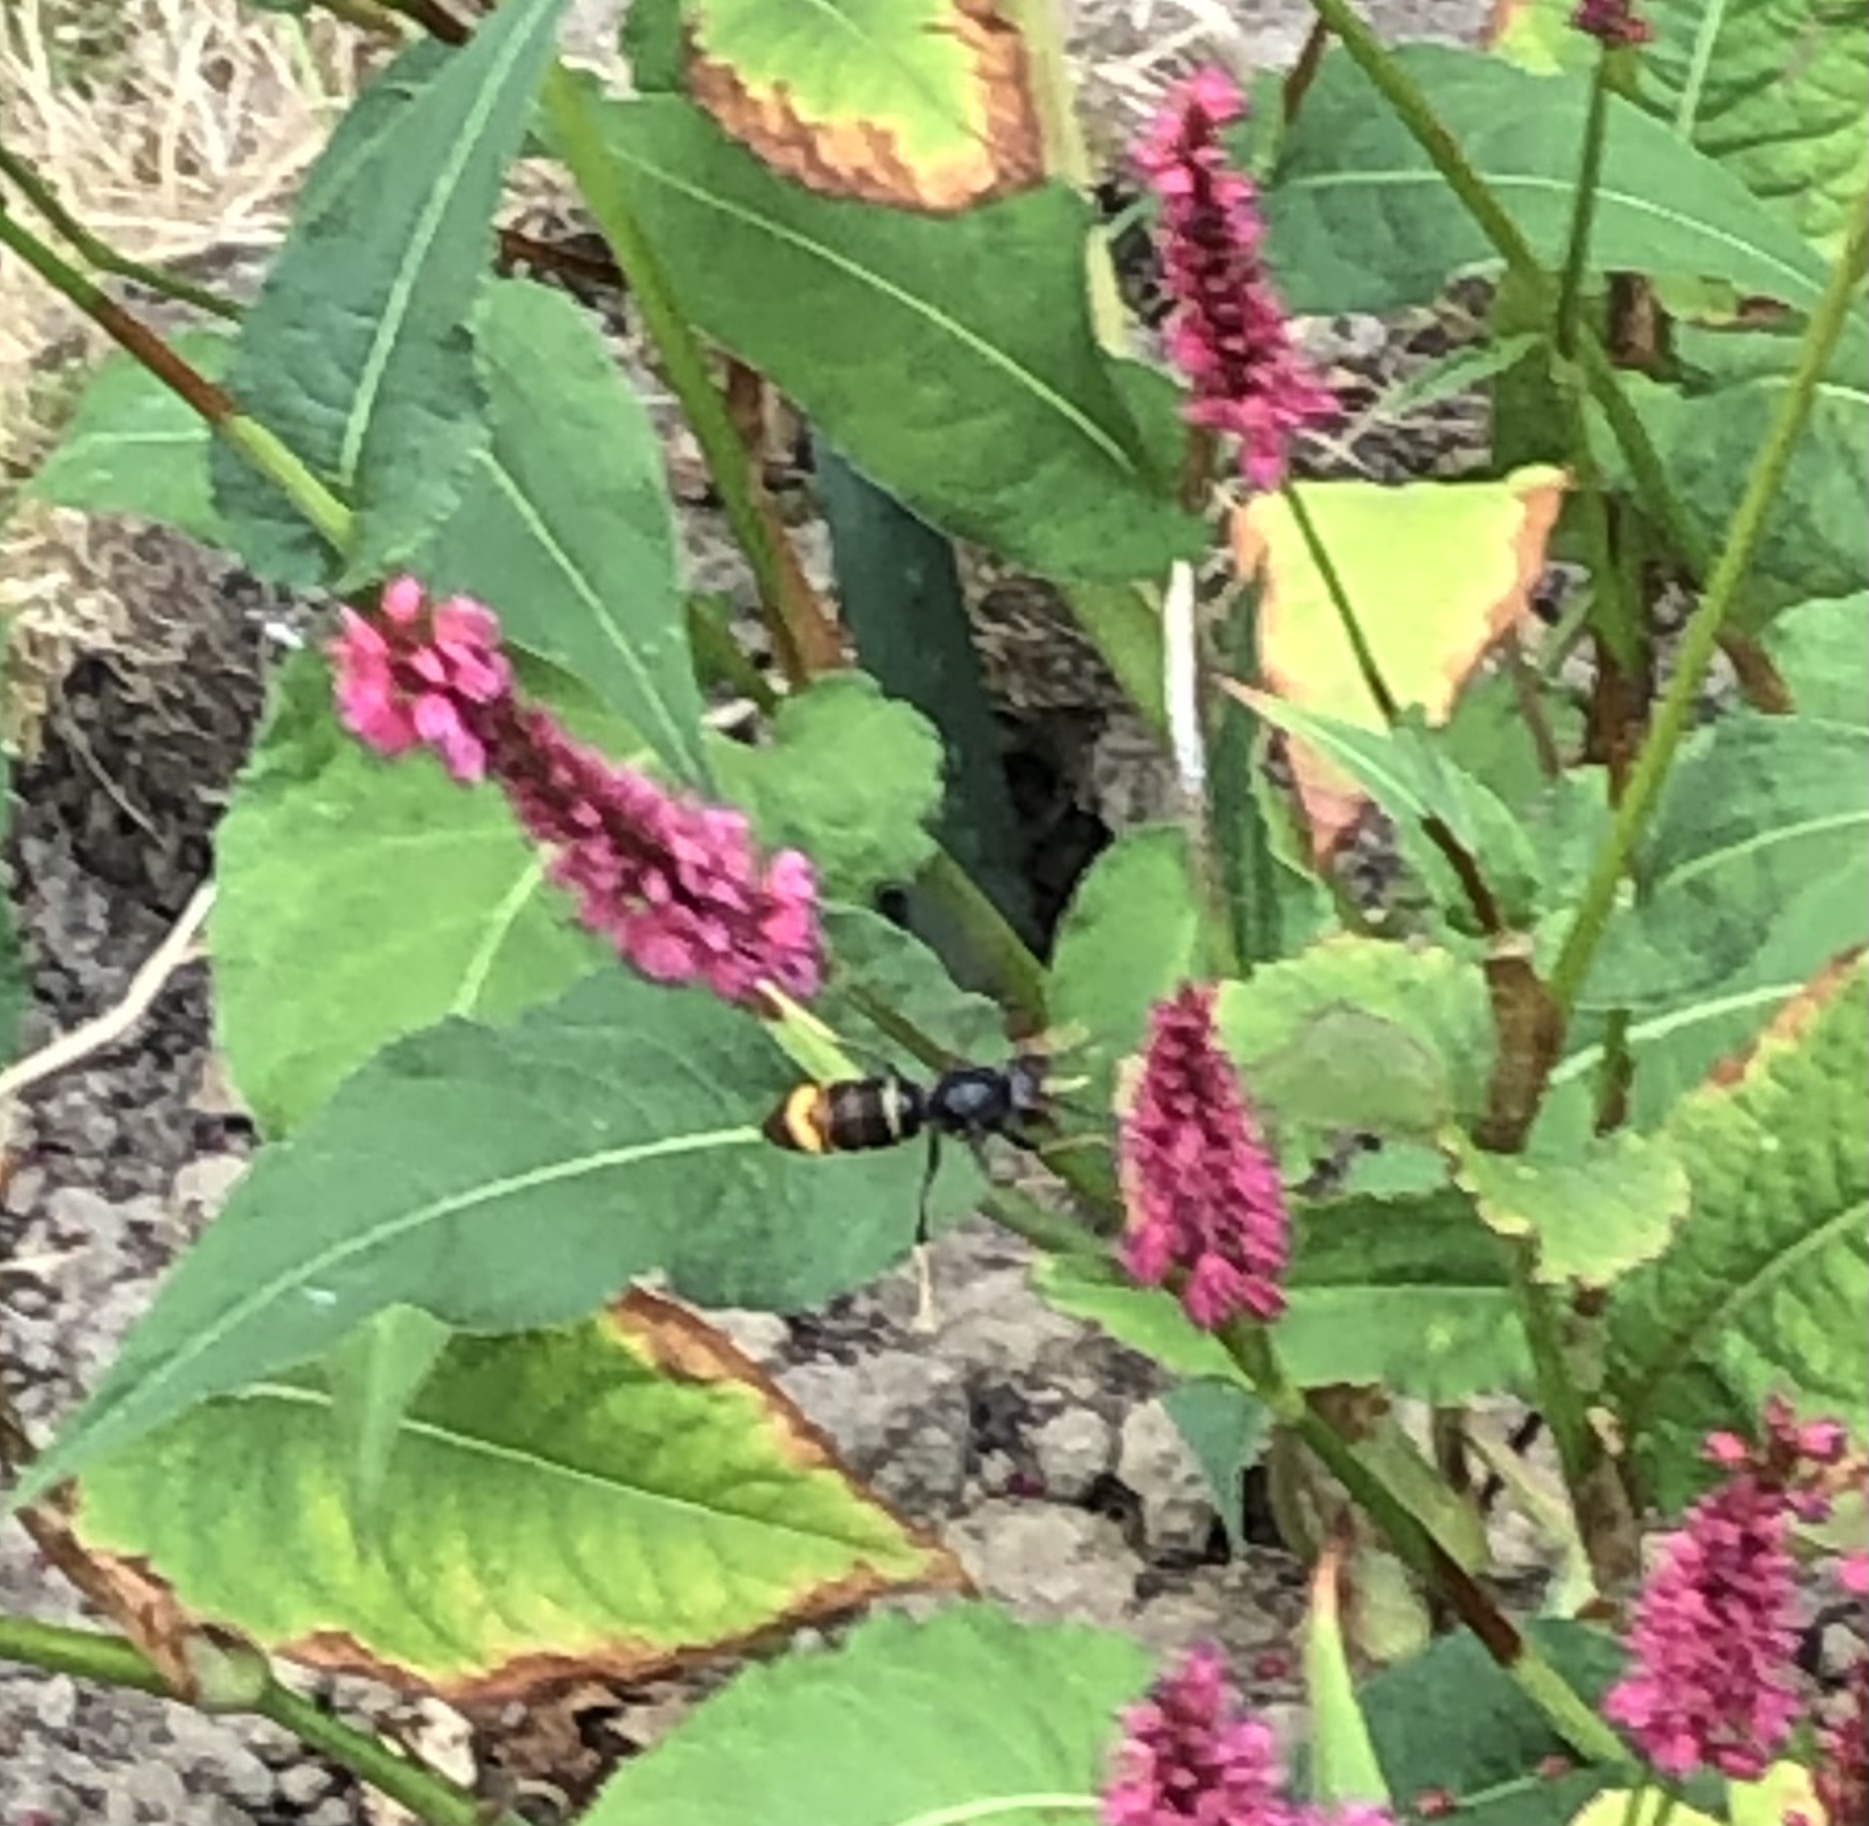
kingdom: Animalia
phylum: Arthropoda
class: Insecta
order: Hymenoptera
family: Vespidae
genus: Vespa
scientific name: Vespa velutina
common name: Asian hornet
